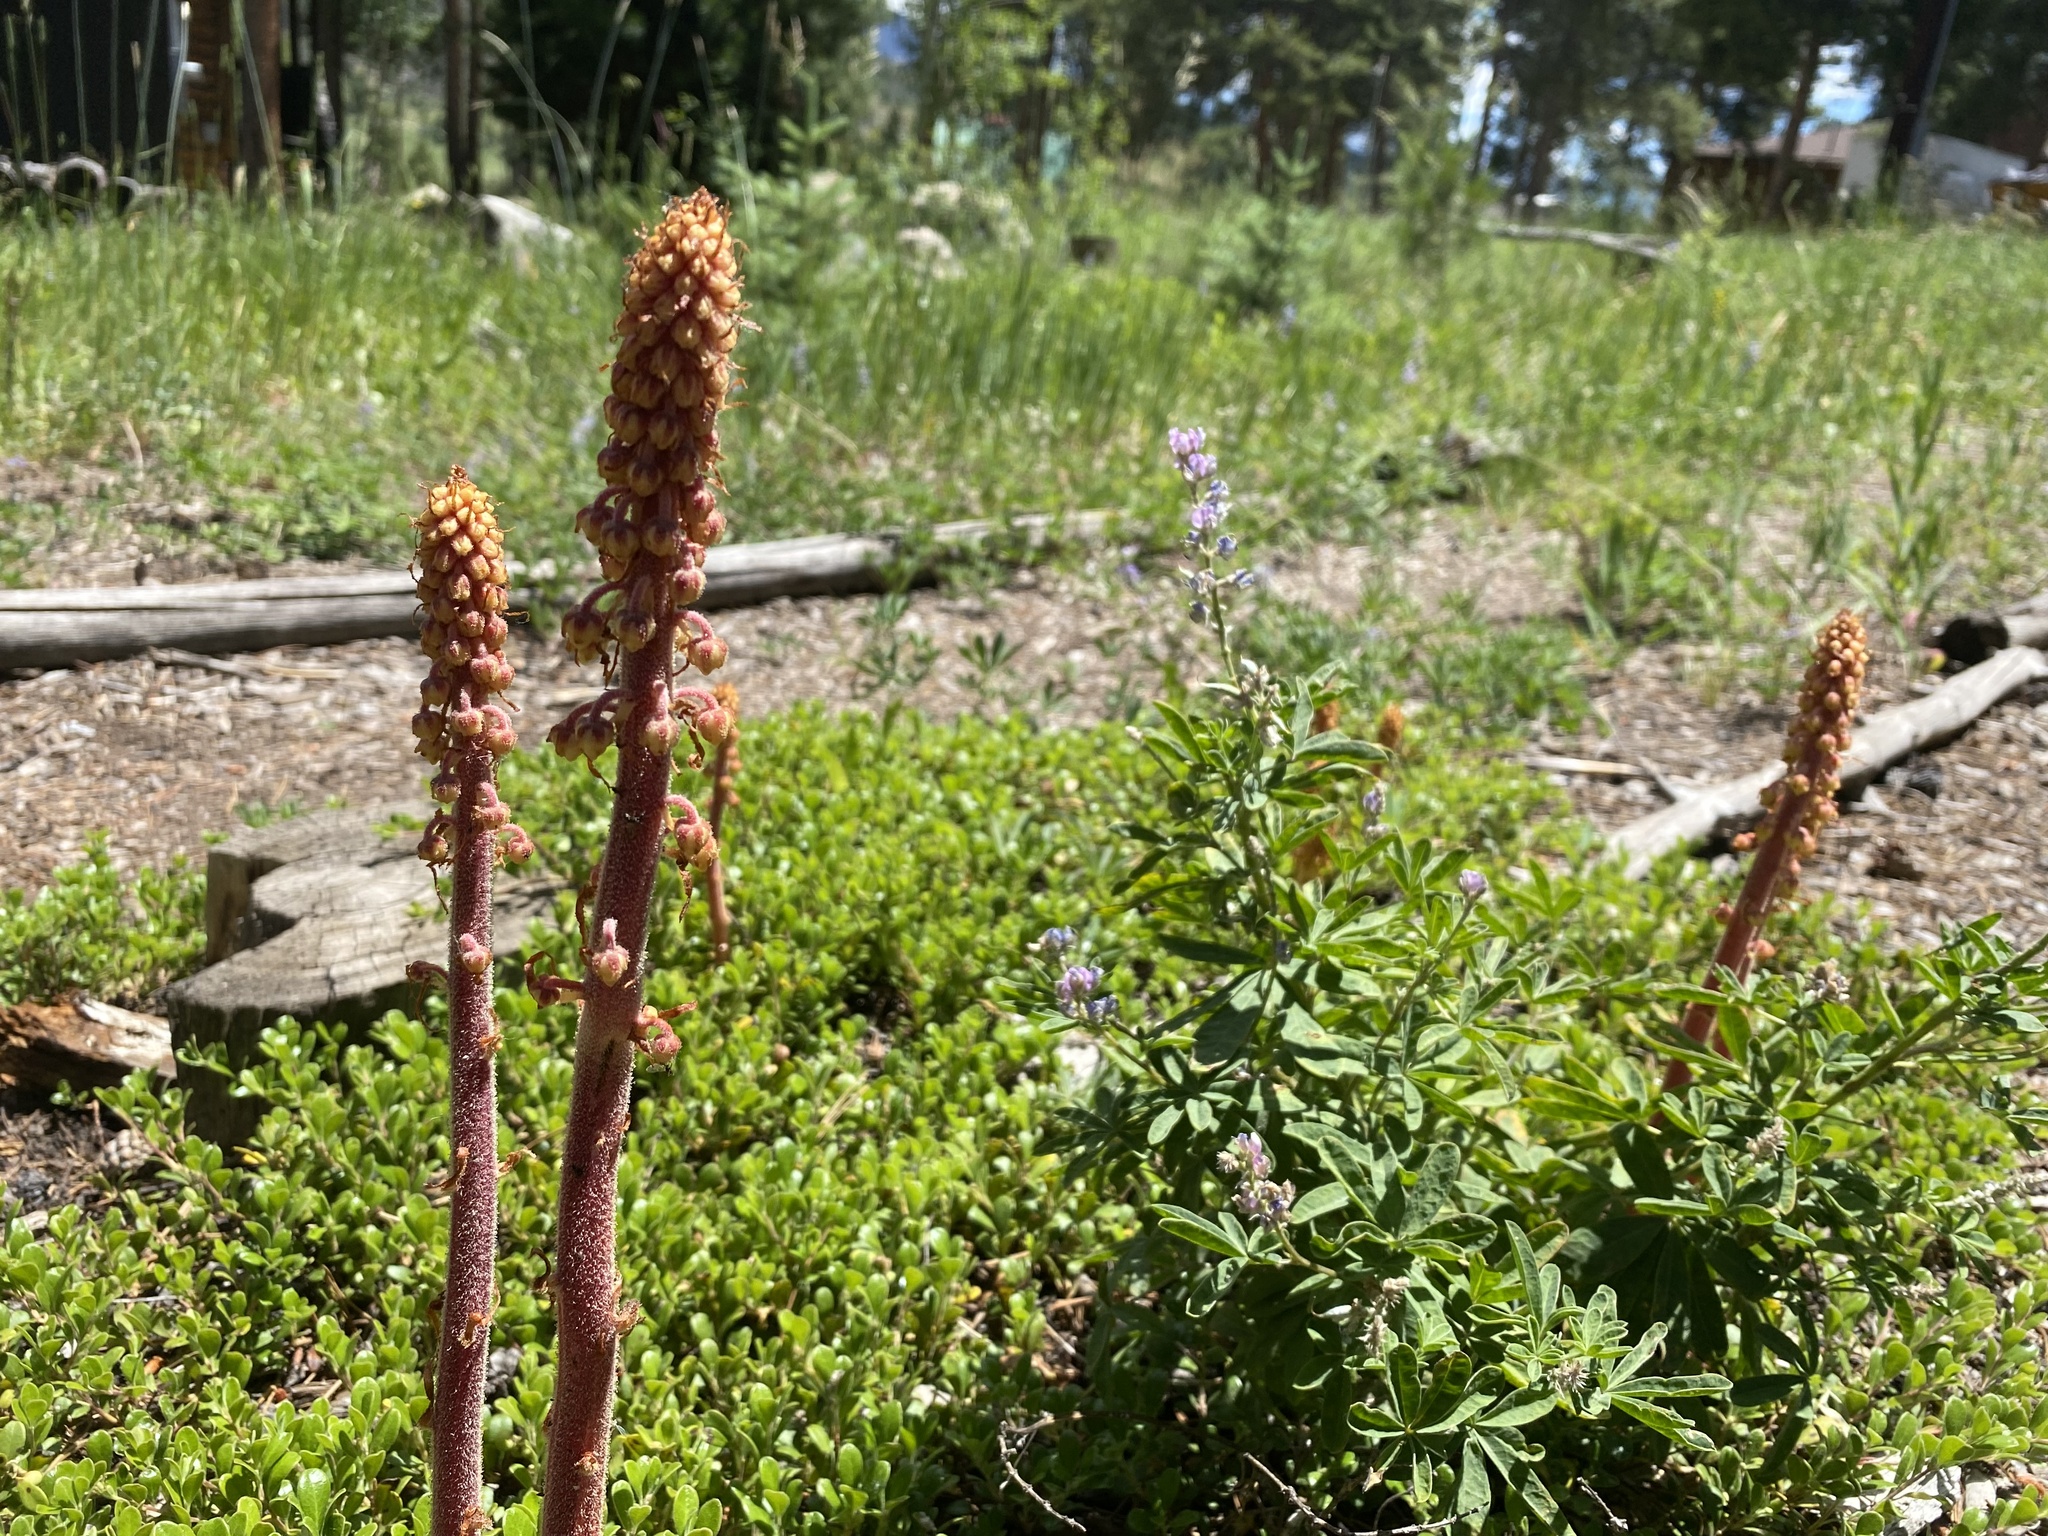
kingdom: Plantae
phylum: Tracheophyta
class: Magnoliopsida
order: Ericales
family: Ericaceae
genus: Pterospora
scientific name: Pterospora andromedea
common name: Giant bird's-nest
